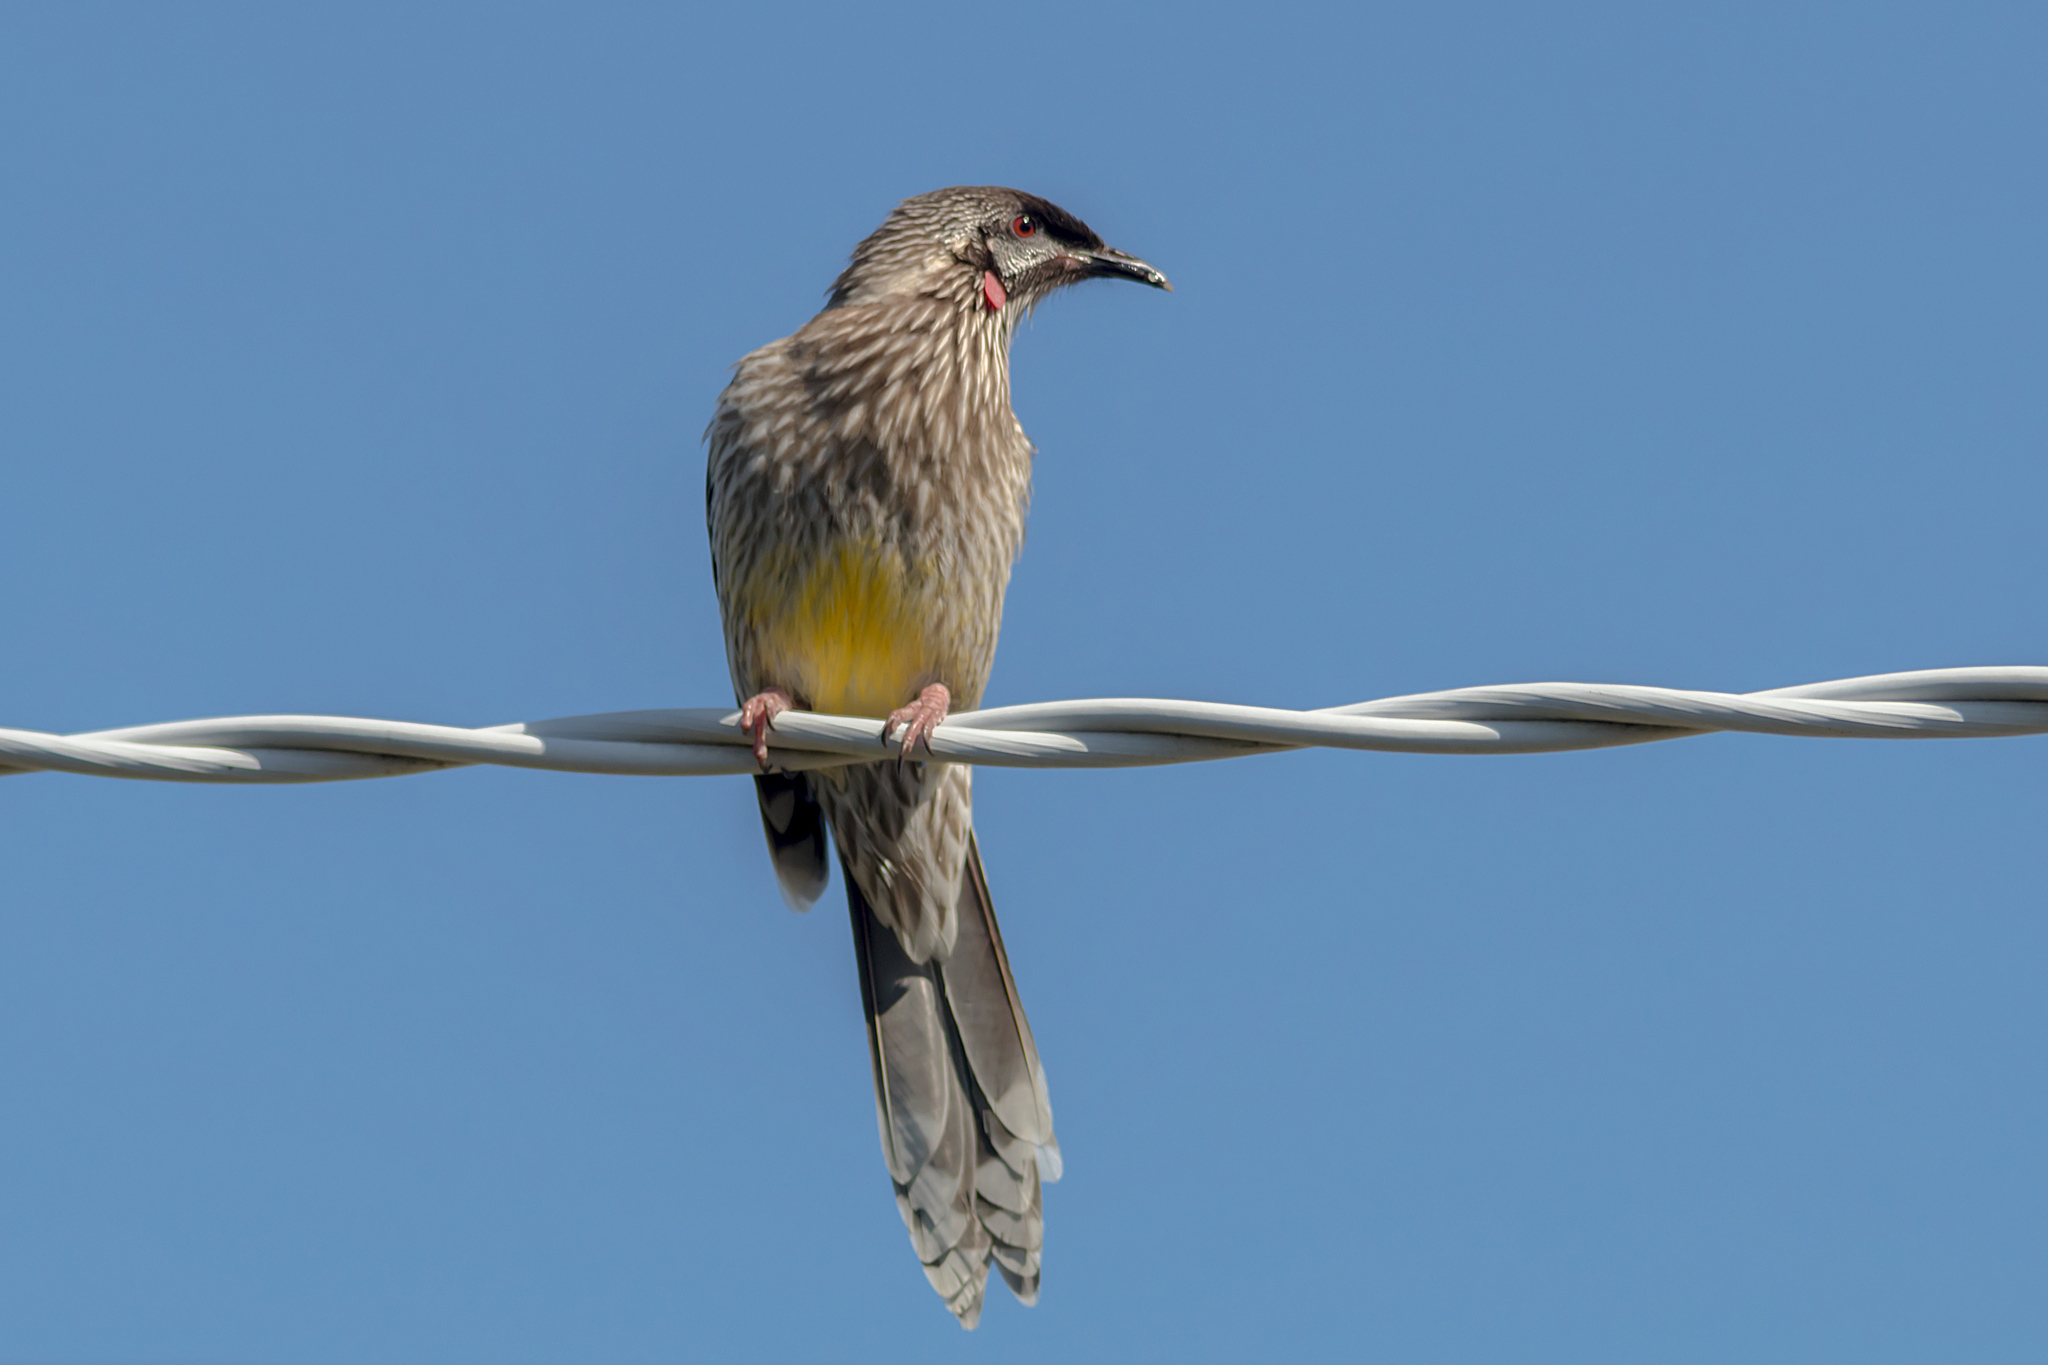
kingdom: Animalia
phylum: Chordata
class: Aves
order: Passeriformes
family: Meliphagidae
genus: Anthochaera
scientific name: Anthochaera carunculata
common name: Red wattlebird
